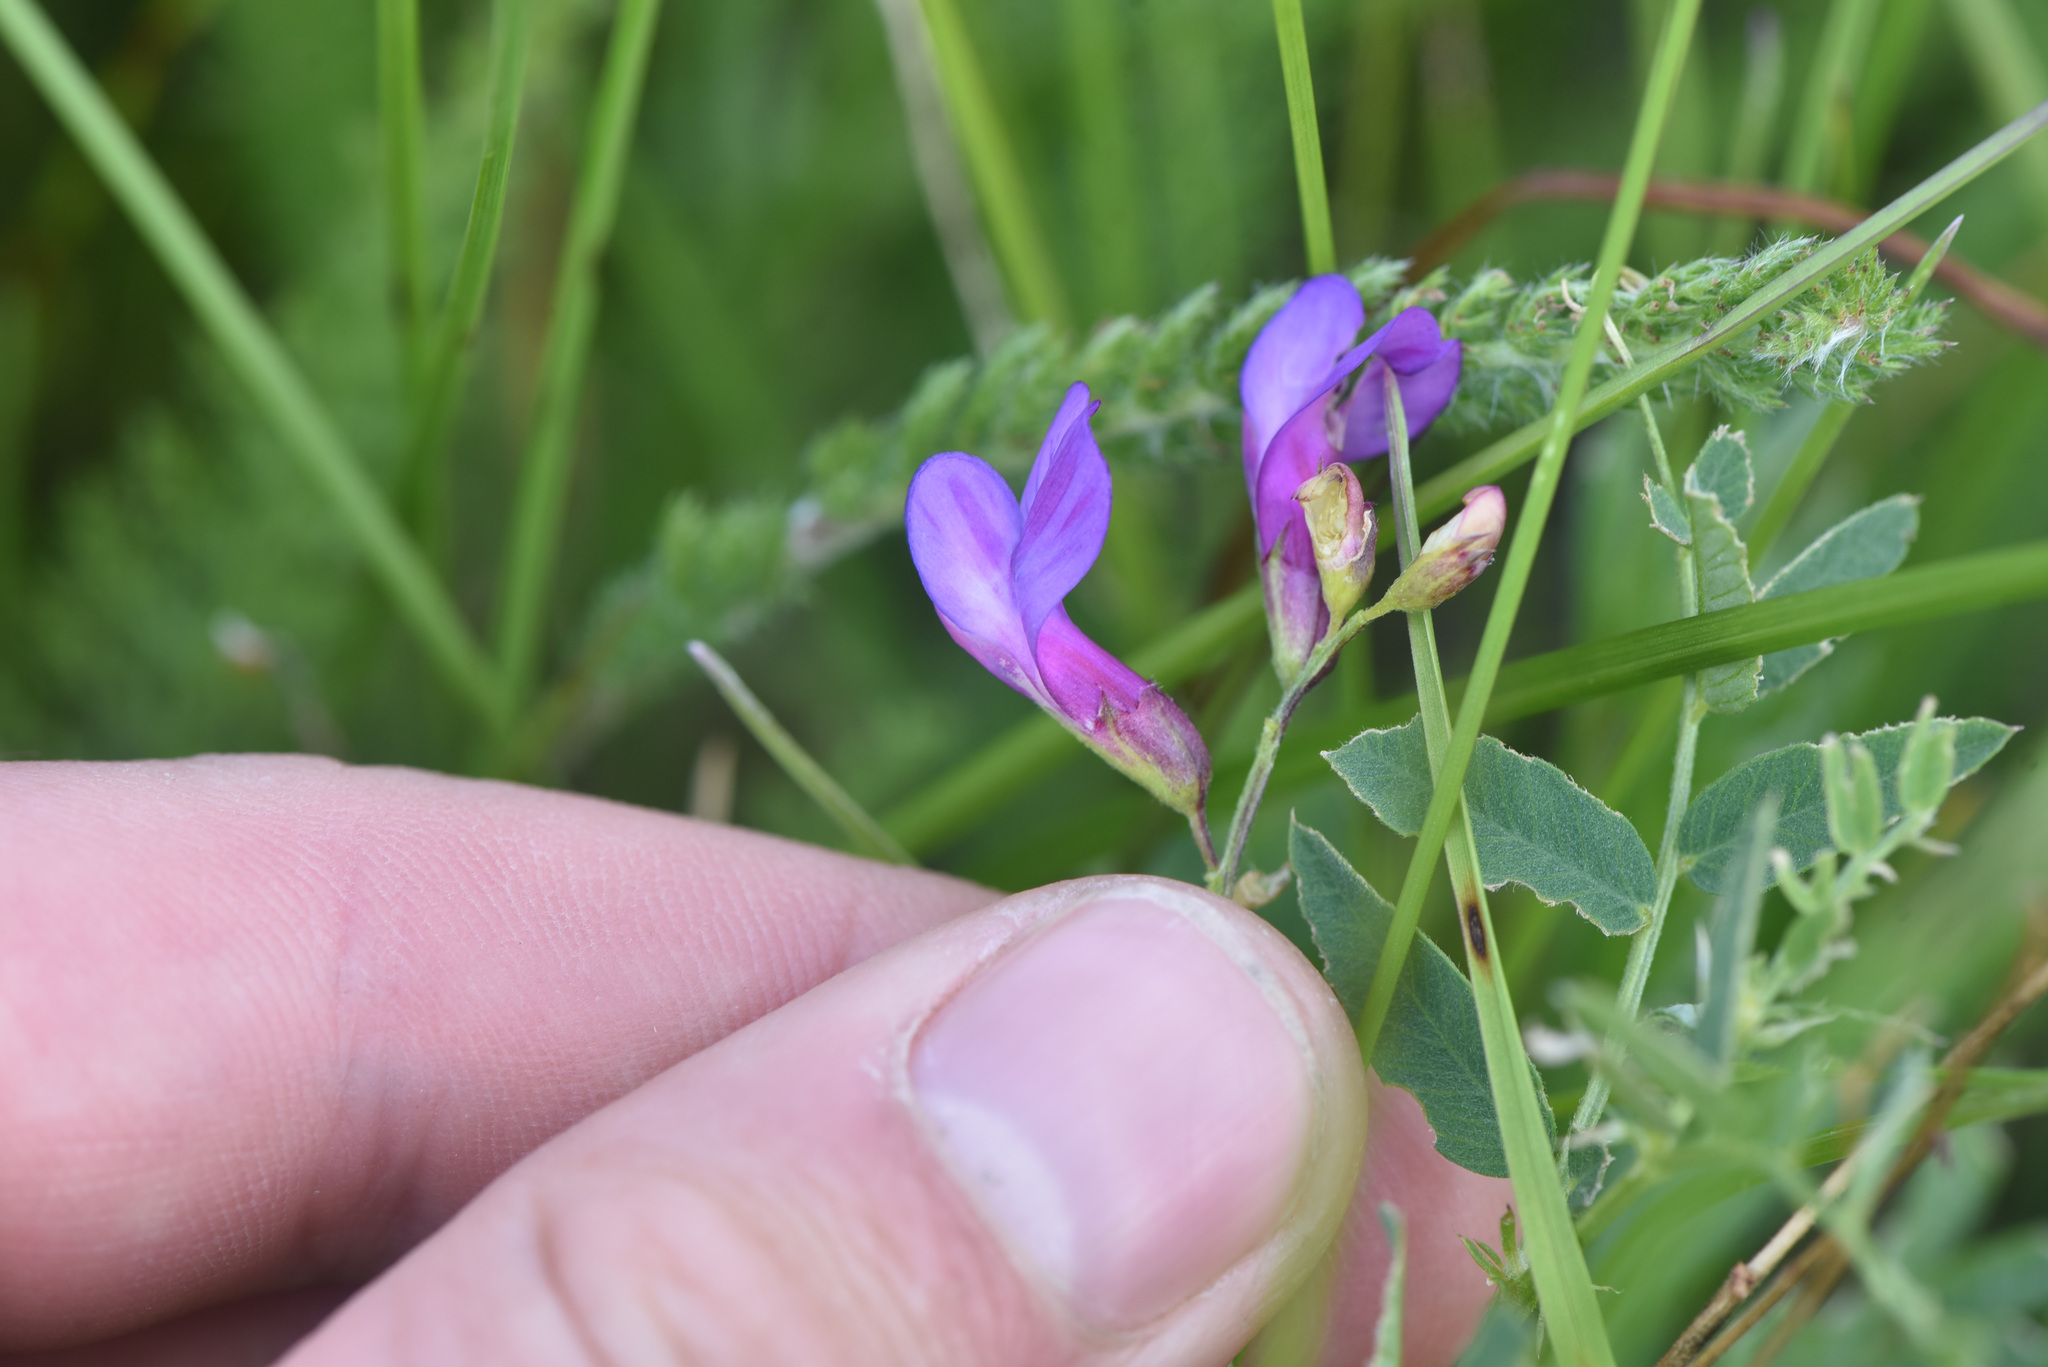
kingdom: Plantae
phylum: Tracheophyta
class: Magnoliopsida
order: Fabales
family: Fabaceae
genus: Vicia
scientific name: Vicia americana
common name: American vetch
